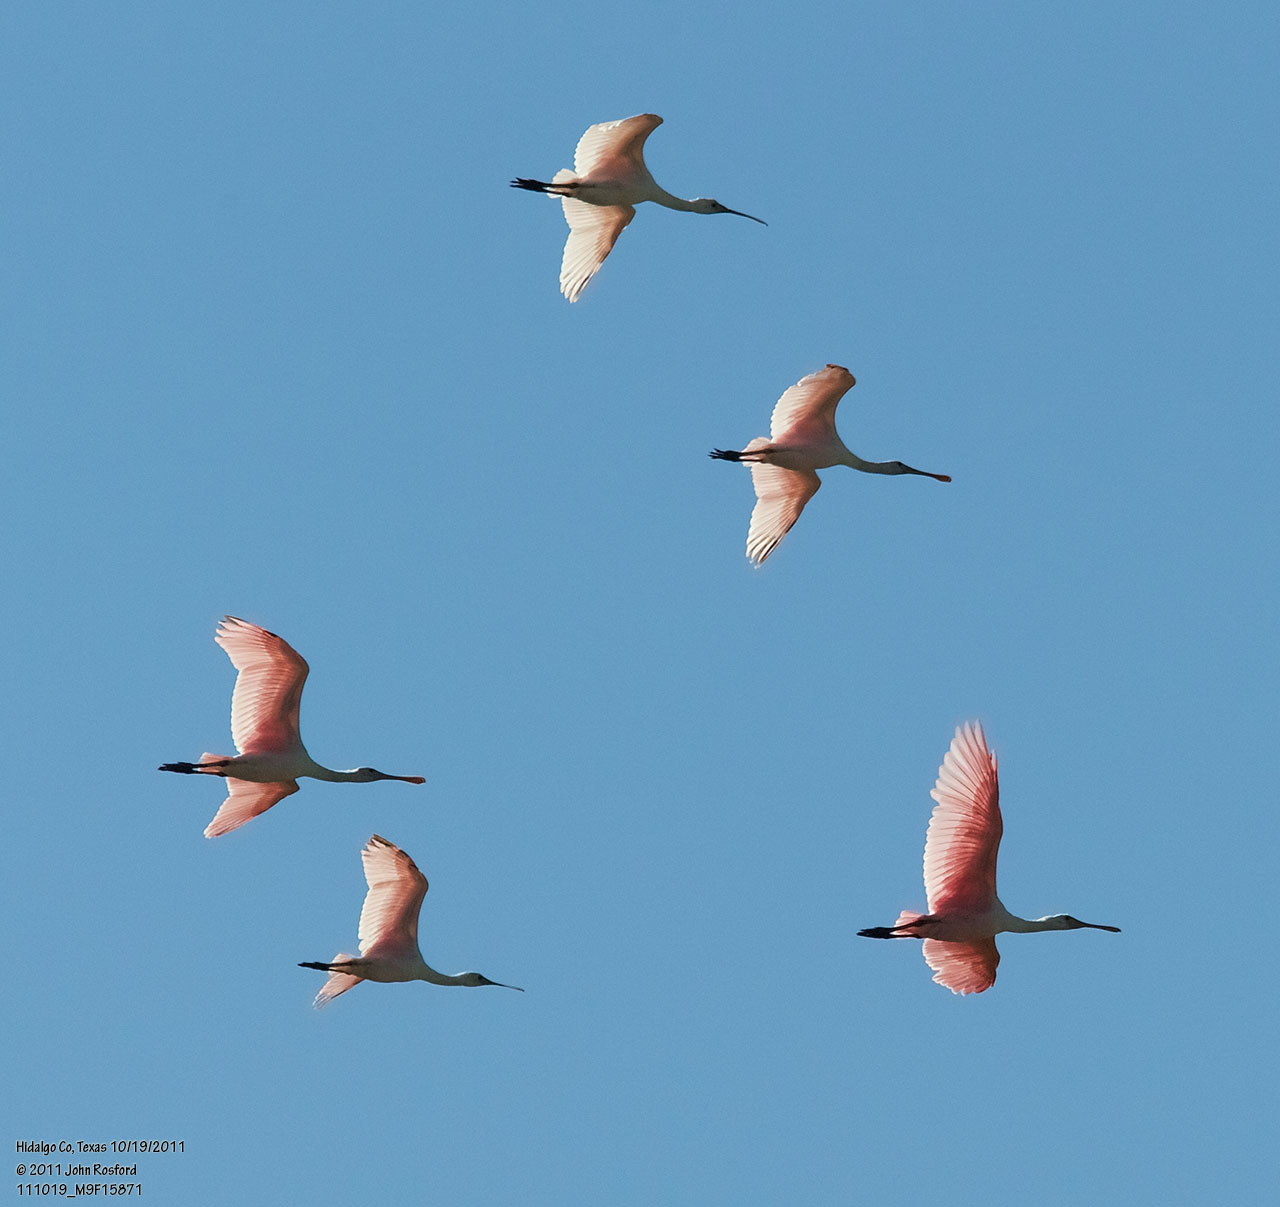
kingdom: Animalia
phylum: Chordata
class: Aves
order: Pelecaniformes
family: Threskiornithidae
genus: Platalea
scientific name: Platalea ajaja
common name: Roseate spoonbill
